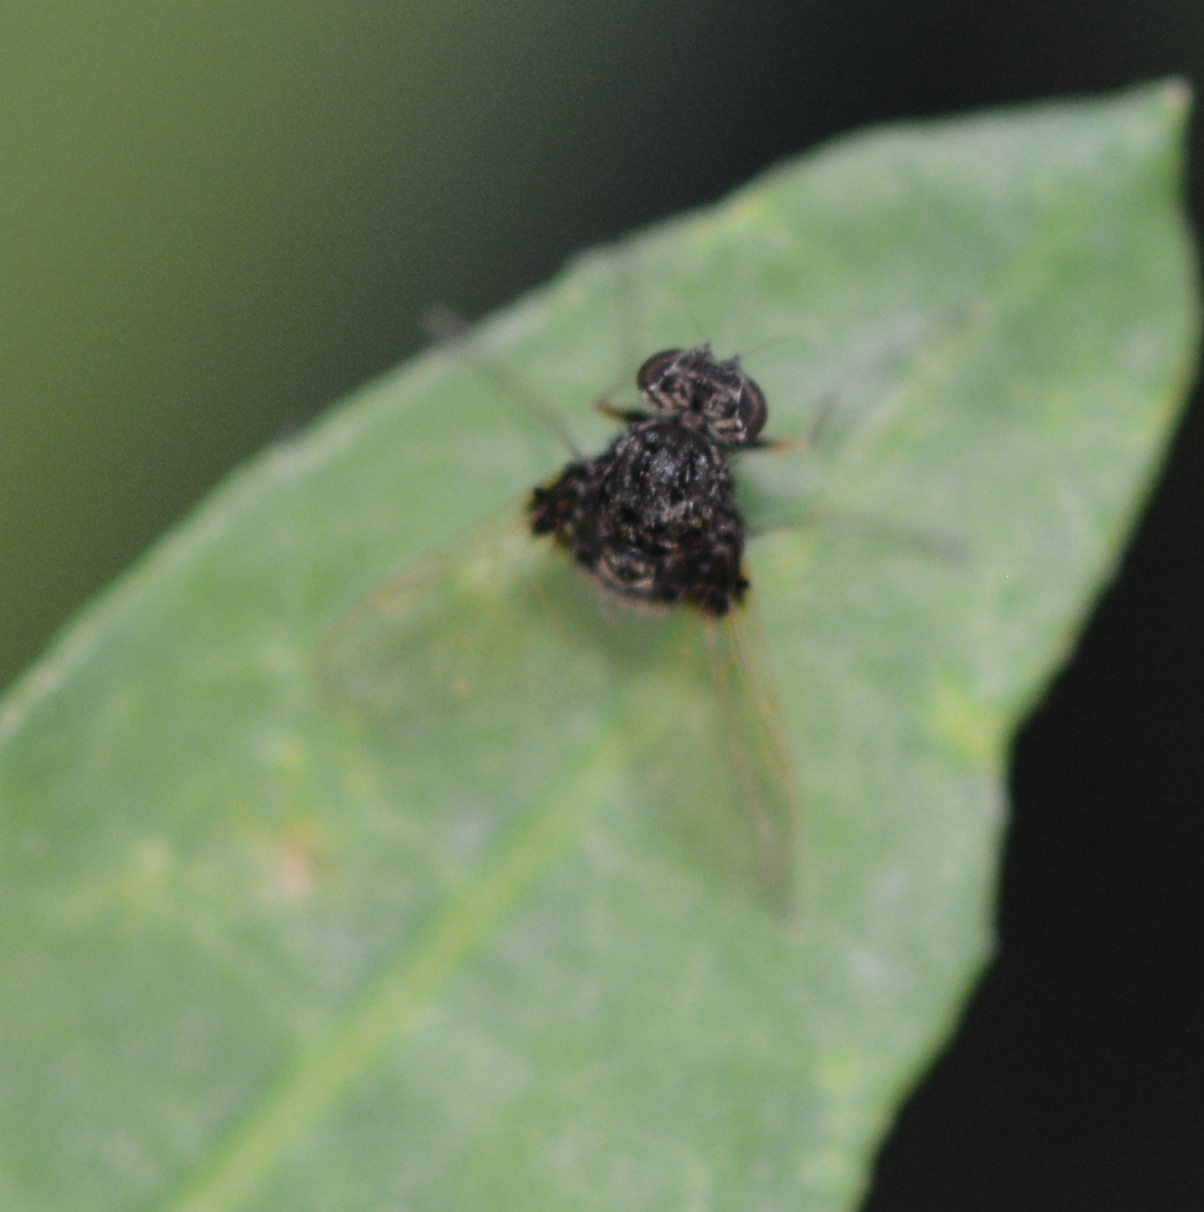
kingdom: Animalia
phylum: Arthropoda
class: Insecta
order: Diptera
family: Rhagionidae
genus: Chrysopilus
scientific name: Chrysopilus basilaris
